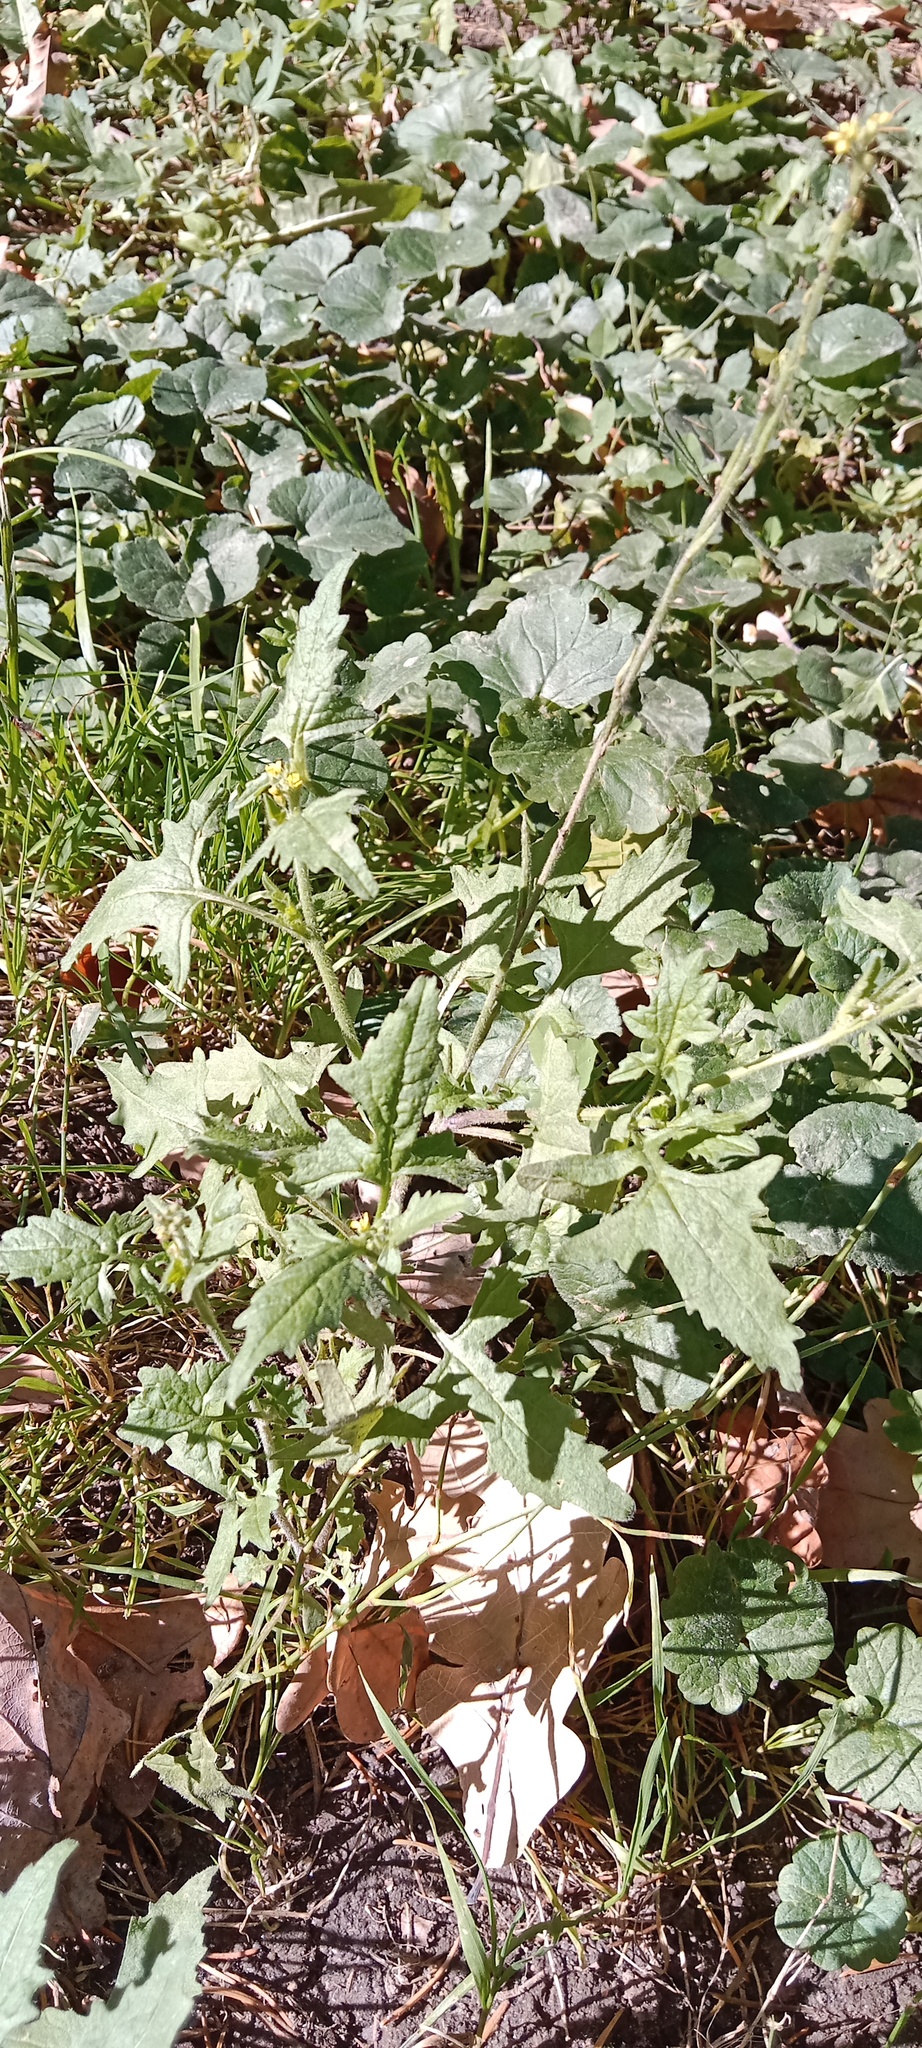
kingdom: Plantae
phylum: Tracheophyta
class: Magnoliopsida
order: Brassicales
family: Brassicaceae
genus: Sisymbrium
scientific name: Sisymbrium officinale
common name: Hedge mustard
